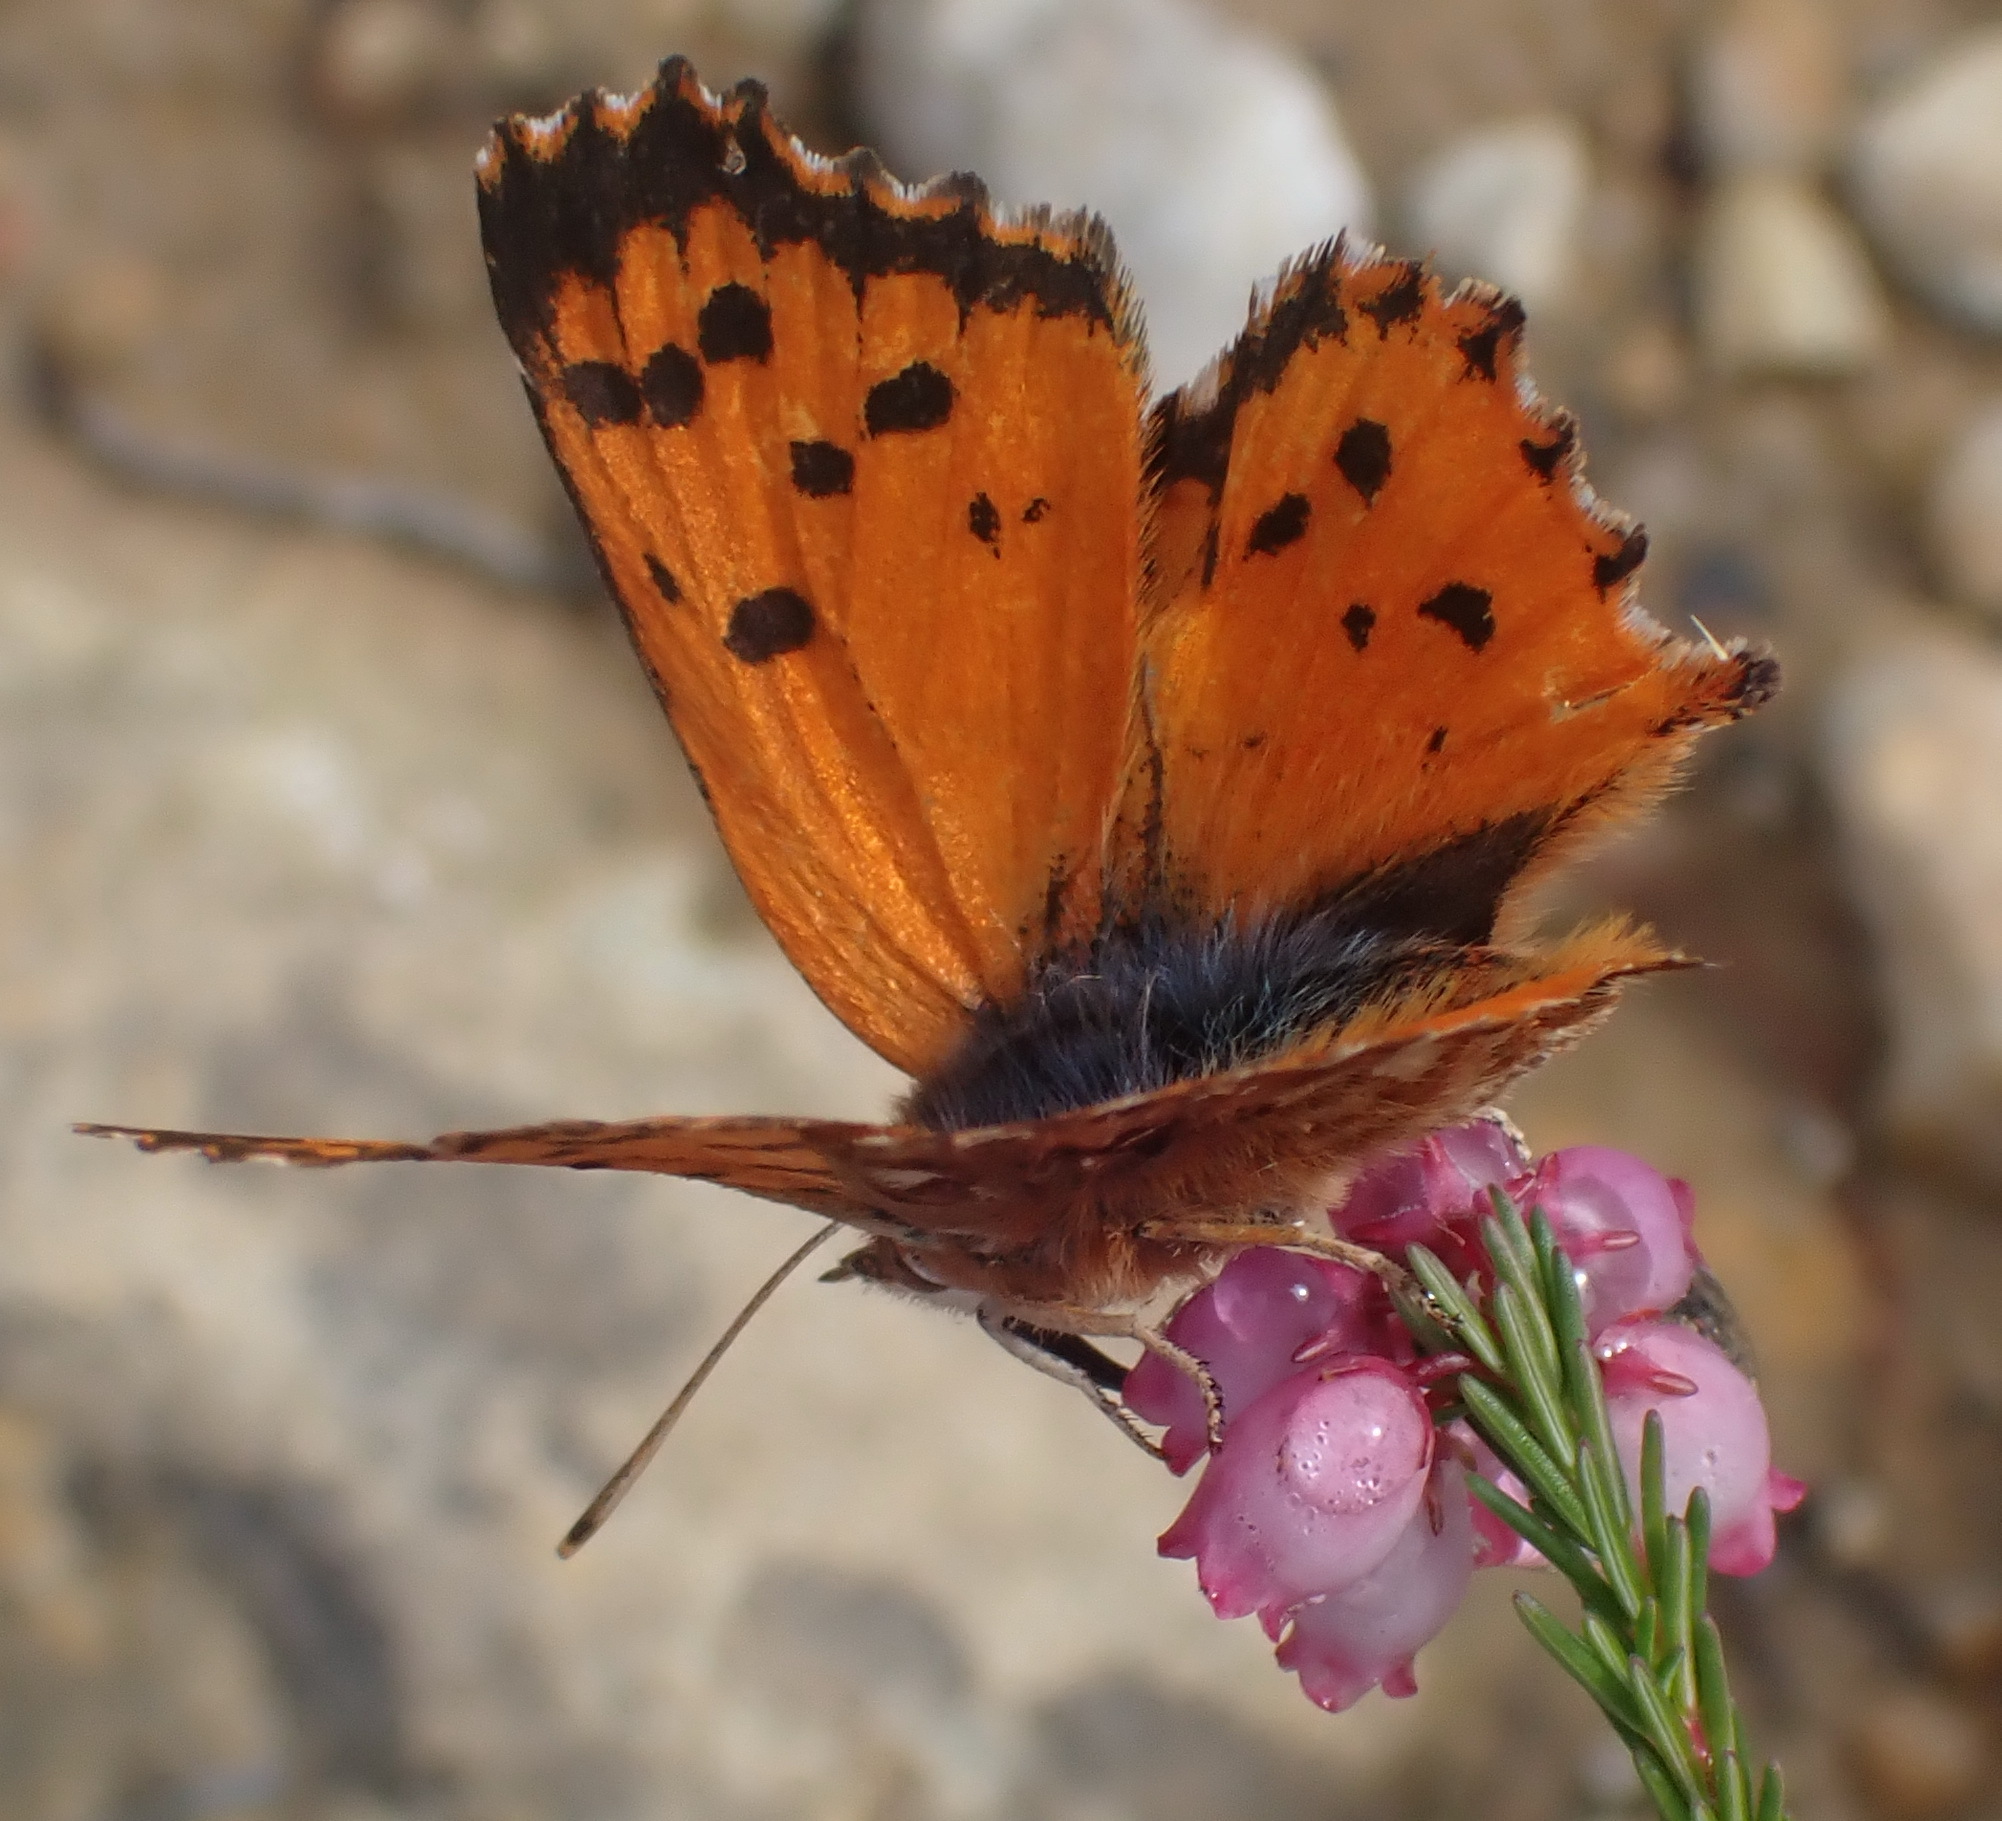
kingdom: Animalia
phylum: Arthropoda
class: Insecta
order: Lepidoptera
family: Lycaenidae
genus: Zeritis
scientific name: Zeritis chrysaor
